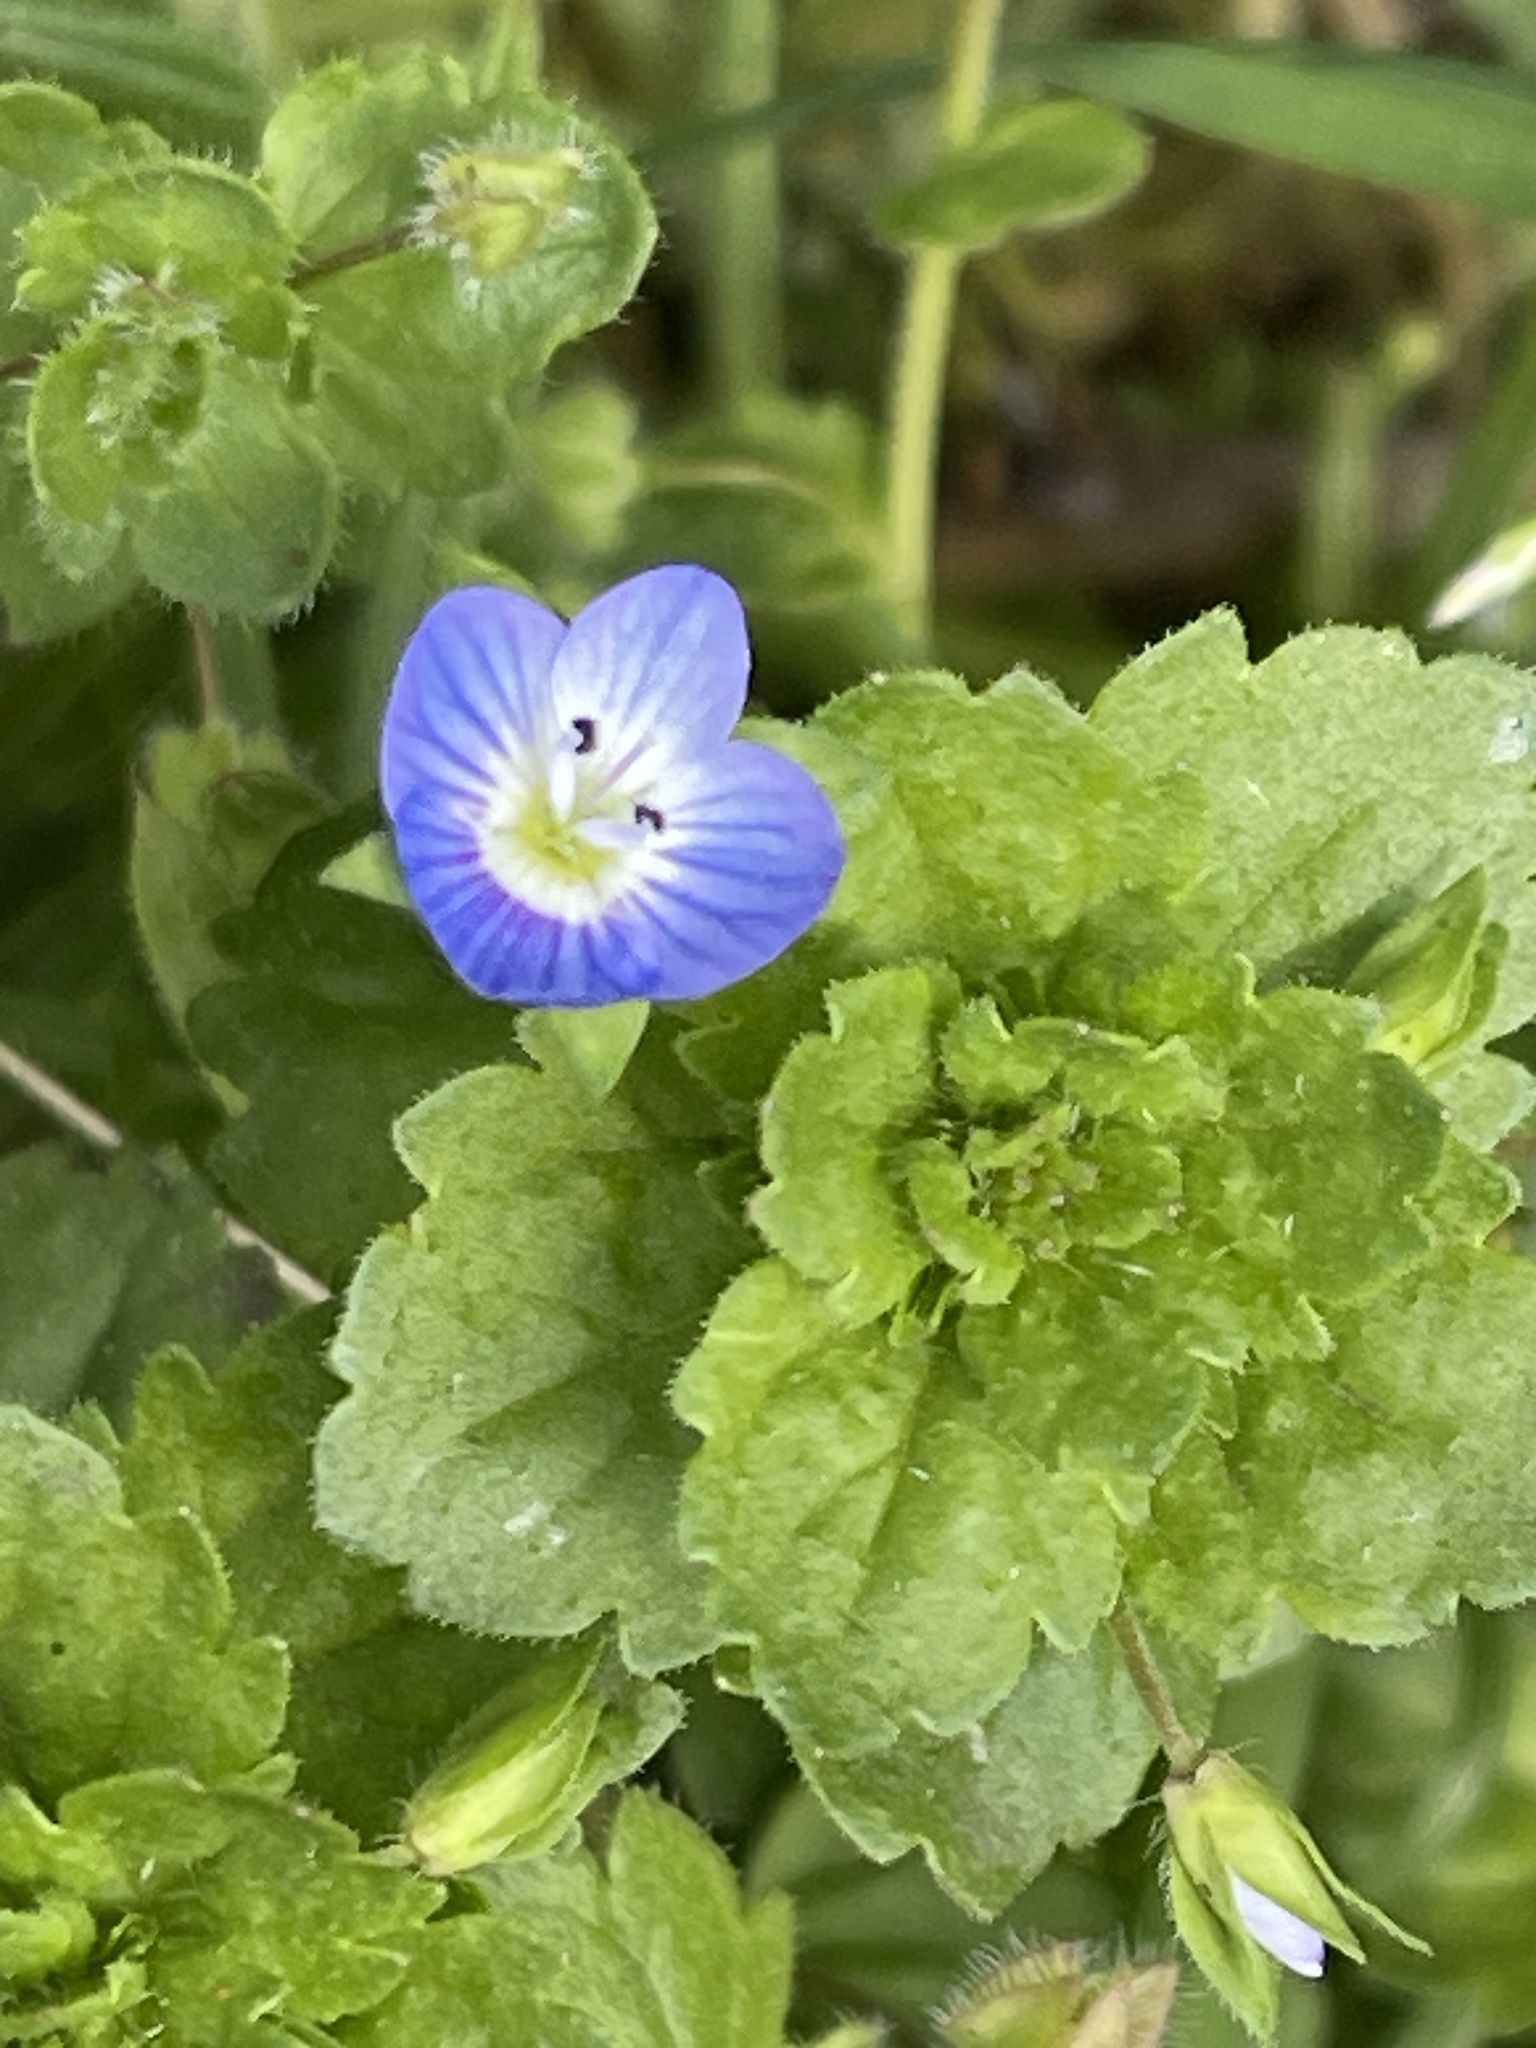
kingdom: Plantae
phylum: Tracheophyta
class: Magnoliopsida
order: Lamiales
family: Plantaginaceae
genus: Veronica
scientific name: Veronica persica
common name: Common field-speedwell
